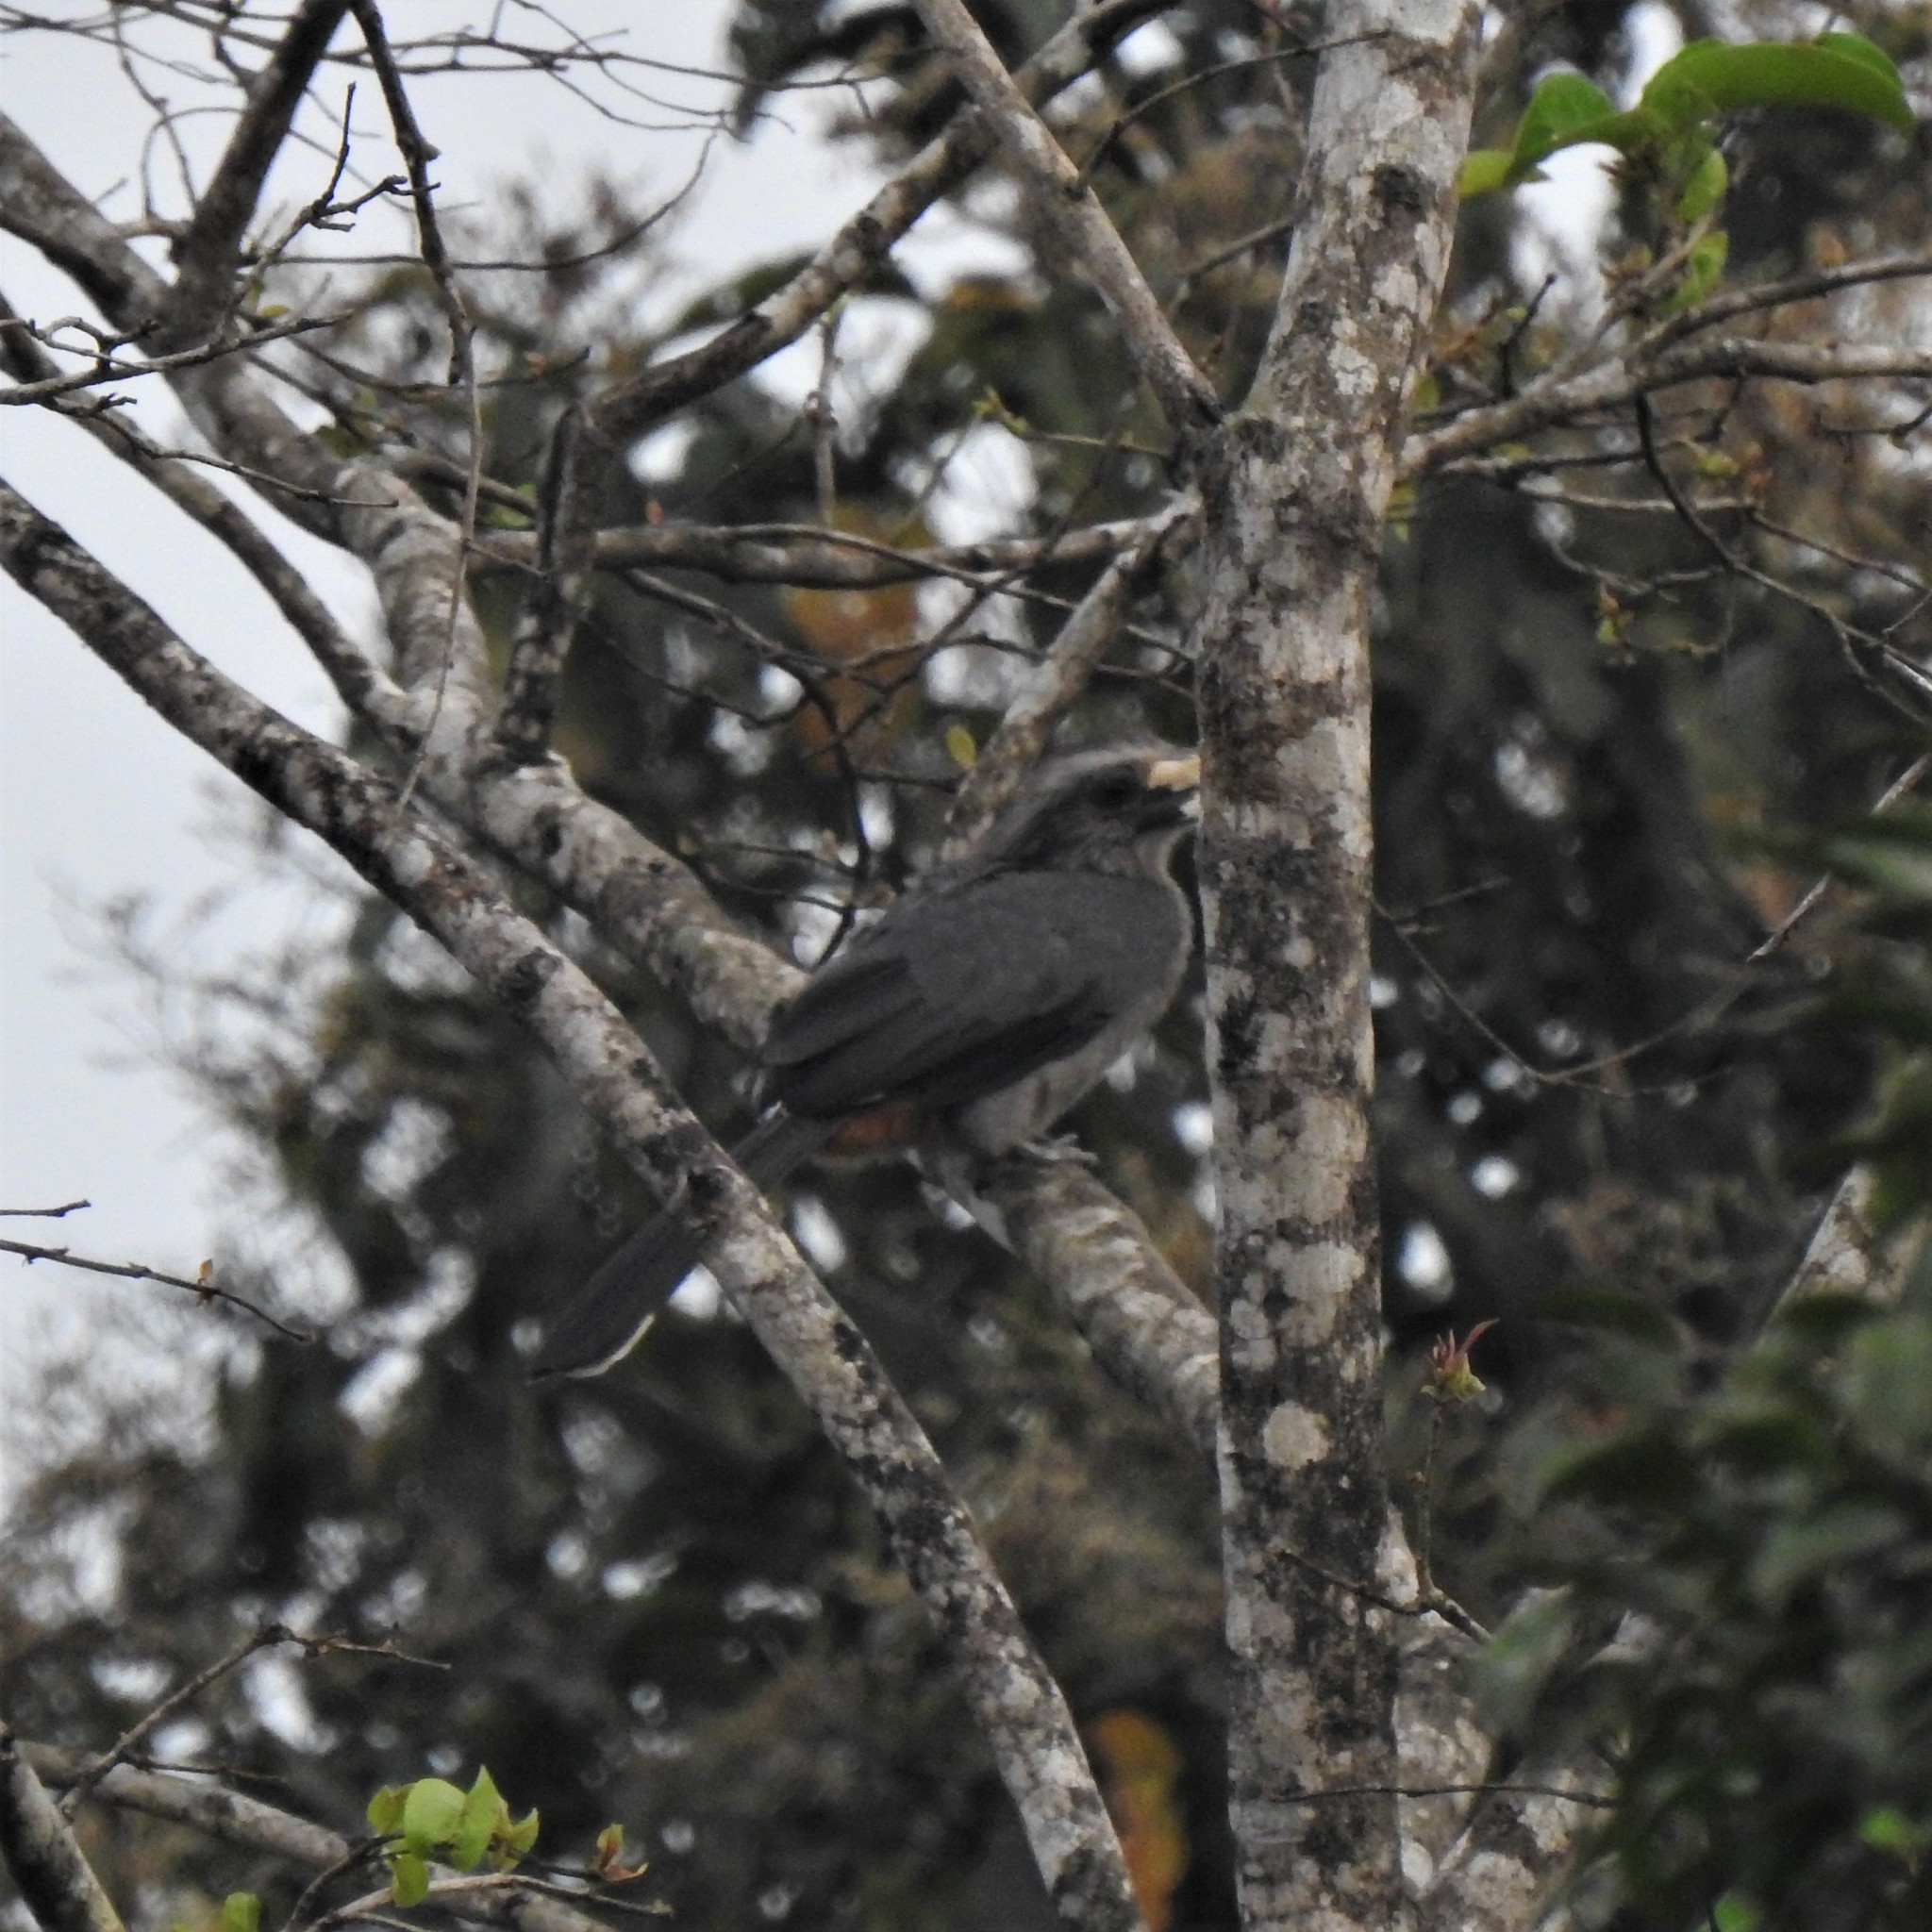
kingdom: Animalia
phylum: Chordata
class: Aves
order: Bucerotiformes
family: Bucerotidae
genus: Ocyceros
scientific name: Ocyceros griseus
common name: Malabar grey hornbill
